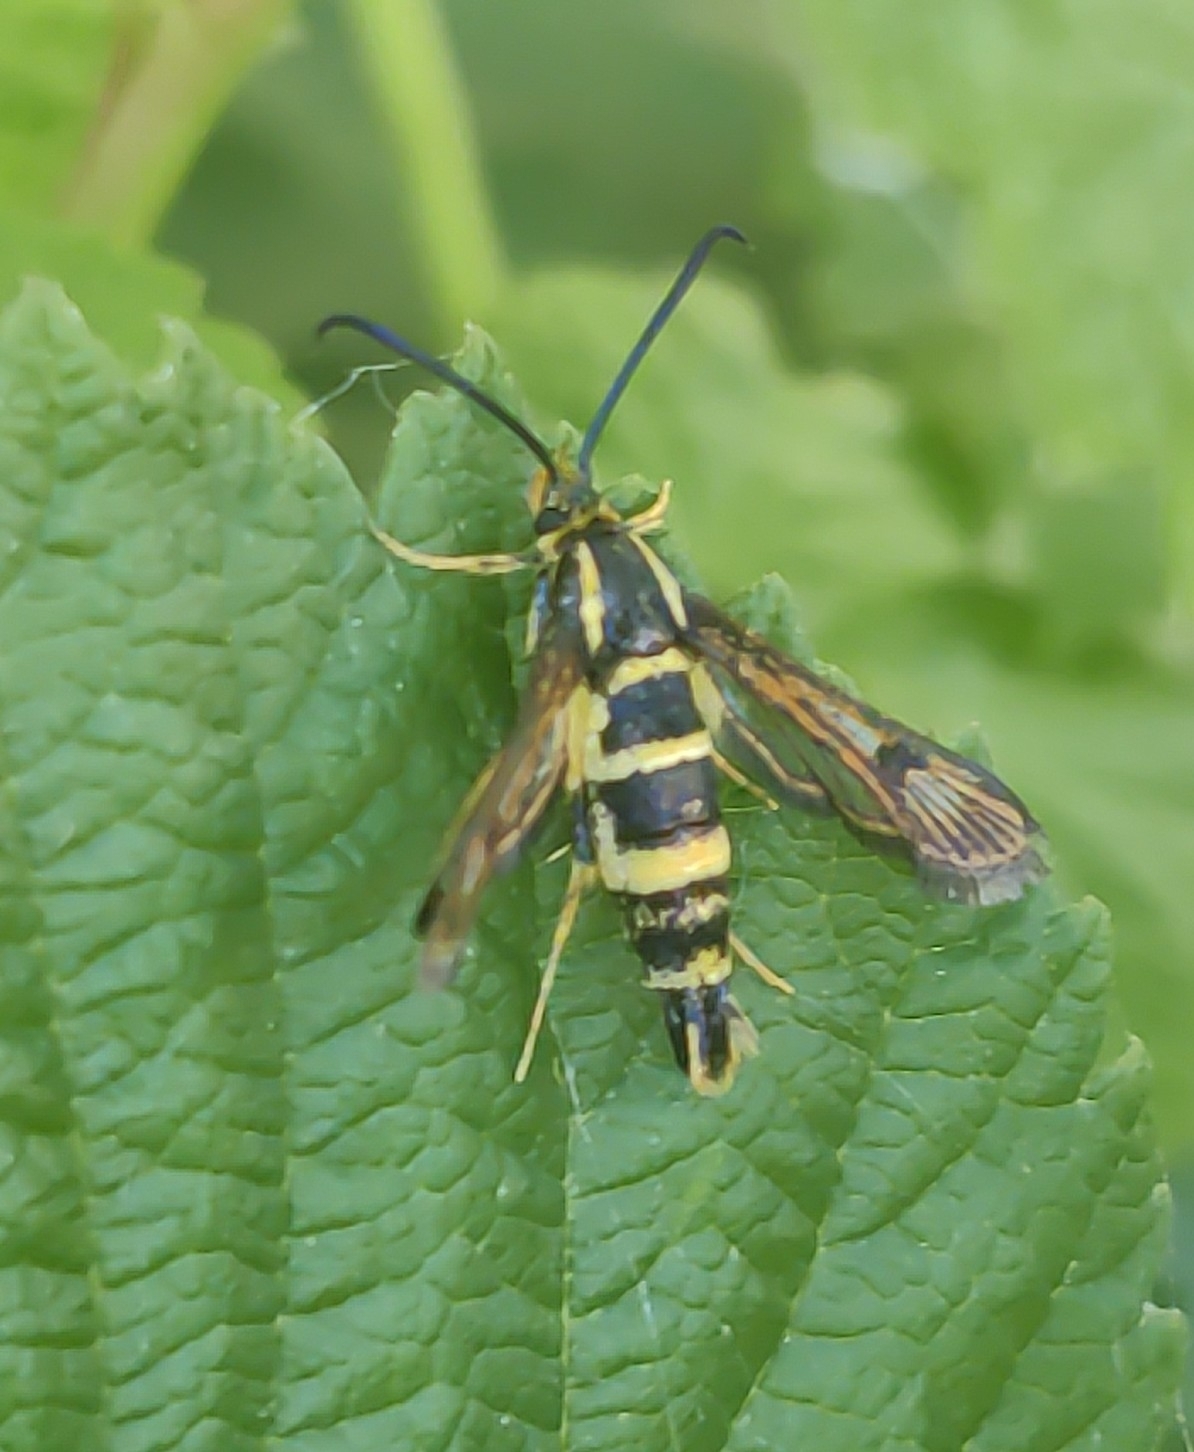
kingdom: Animalia
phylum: Arthropoda
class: Insecta
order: Lepidoptera
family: Sesiidae
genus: Synanthedon
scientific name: Synanthedon bibionipennis
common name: Strawberry crown moth
